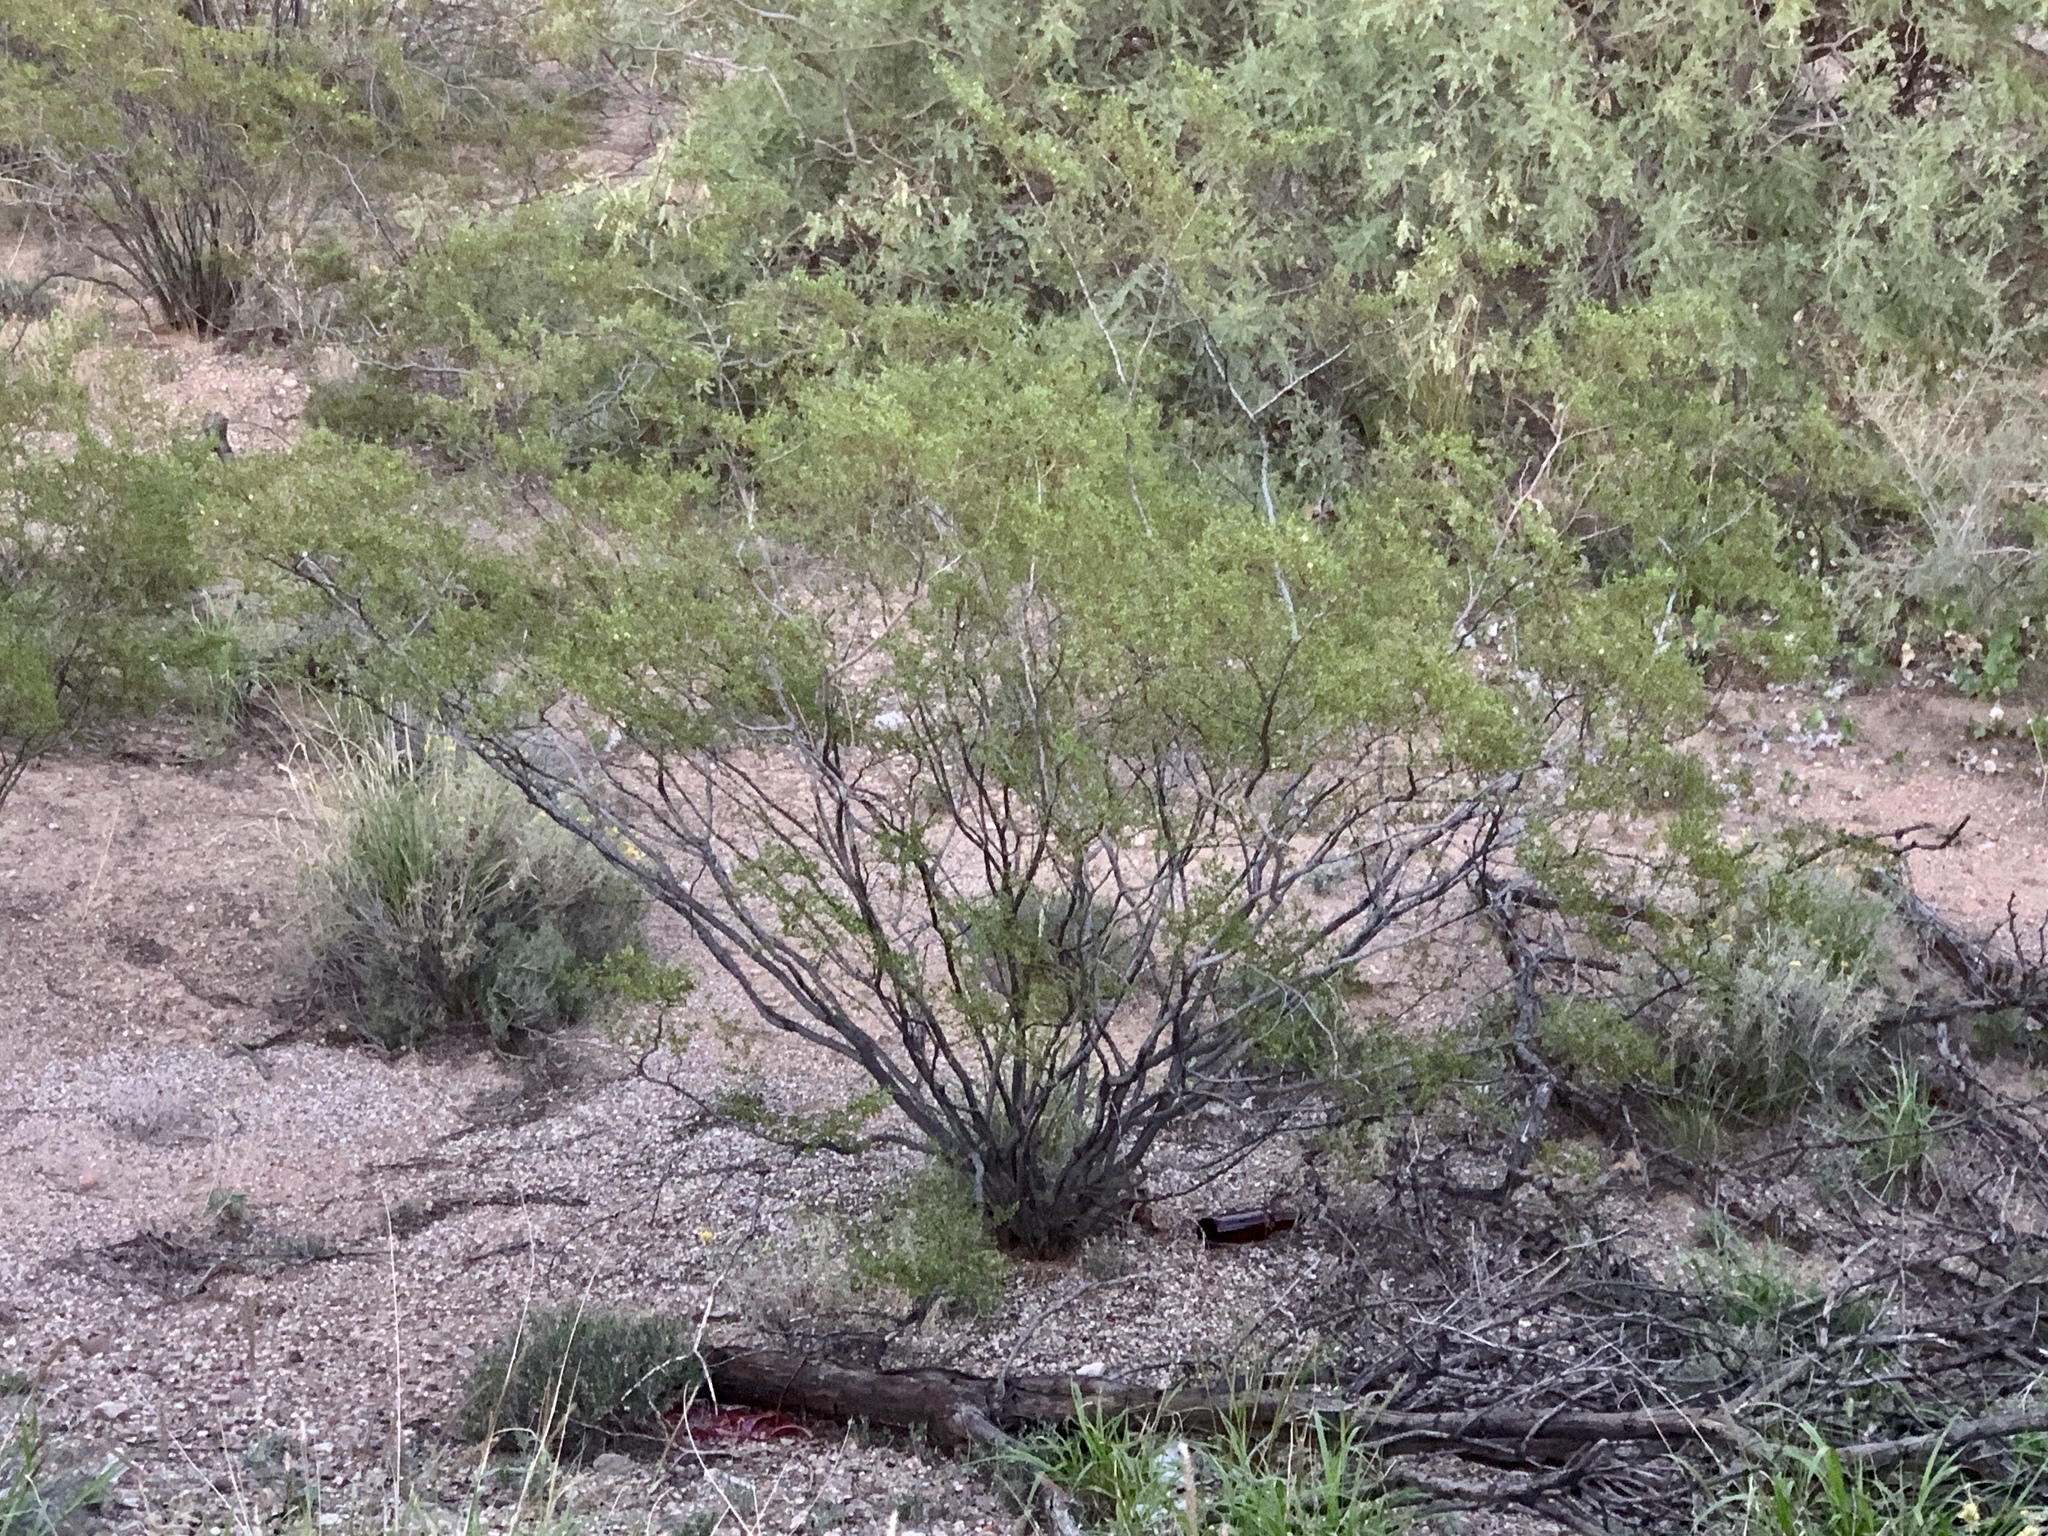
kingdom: Plantae
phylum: Tracheophyta
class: Magnoliopsida
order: Zygophyllales
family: Zygophyllaceae
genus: Larrea
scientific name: Larrea tridentata
